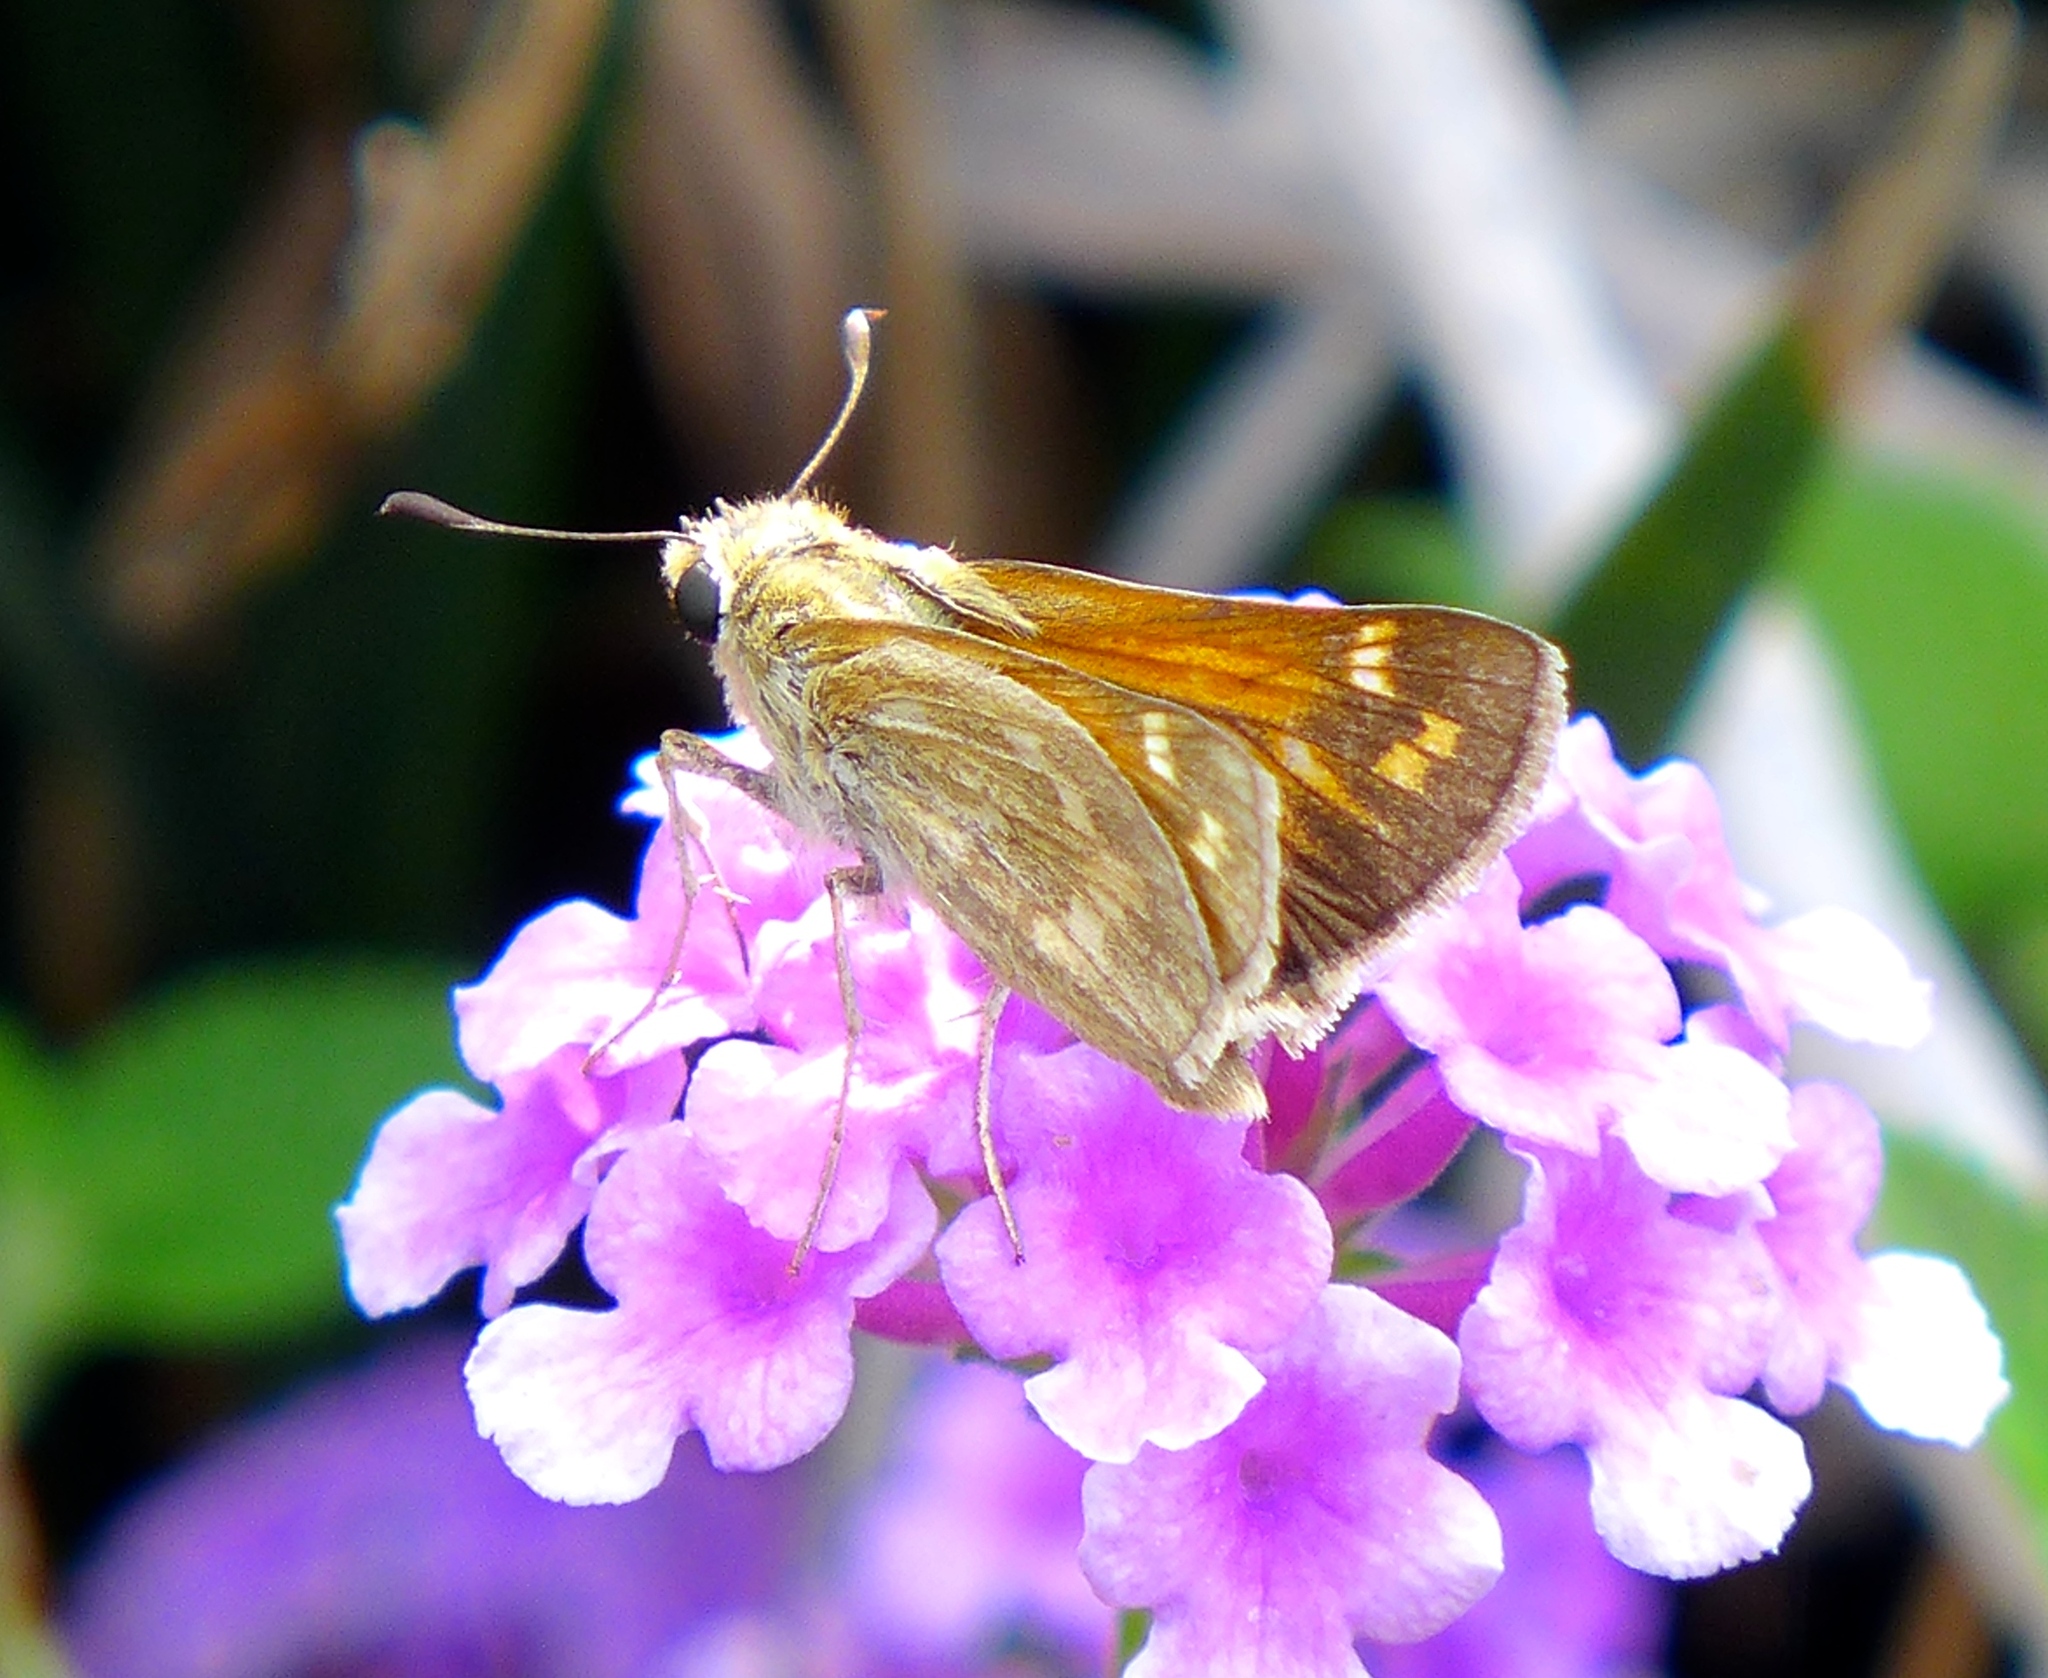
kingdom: Animalia
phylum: Arthropoda
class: Insecta
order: Lepidoptera
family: Hesperiidae
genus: Atalopedes
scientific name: Atalopedes campestris
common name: Sachem
